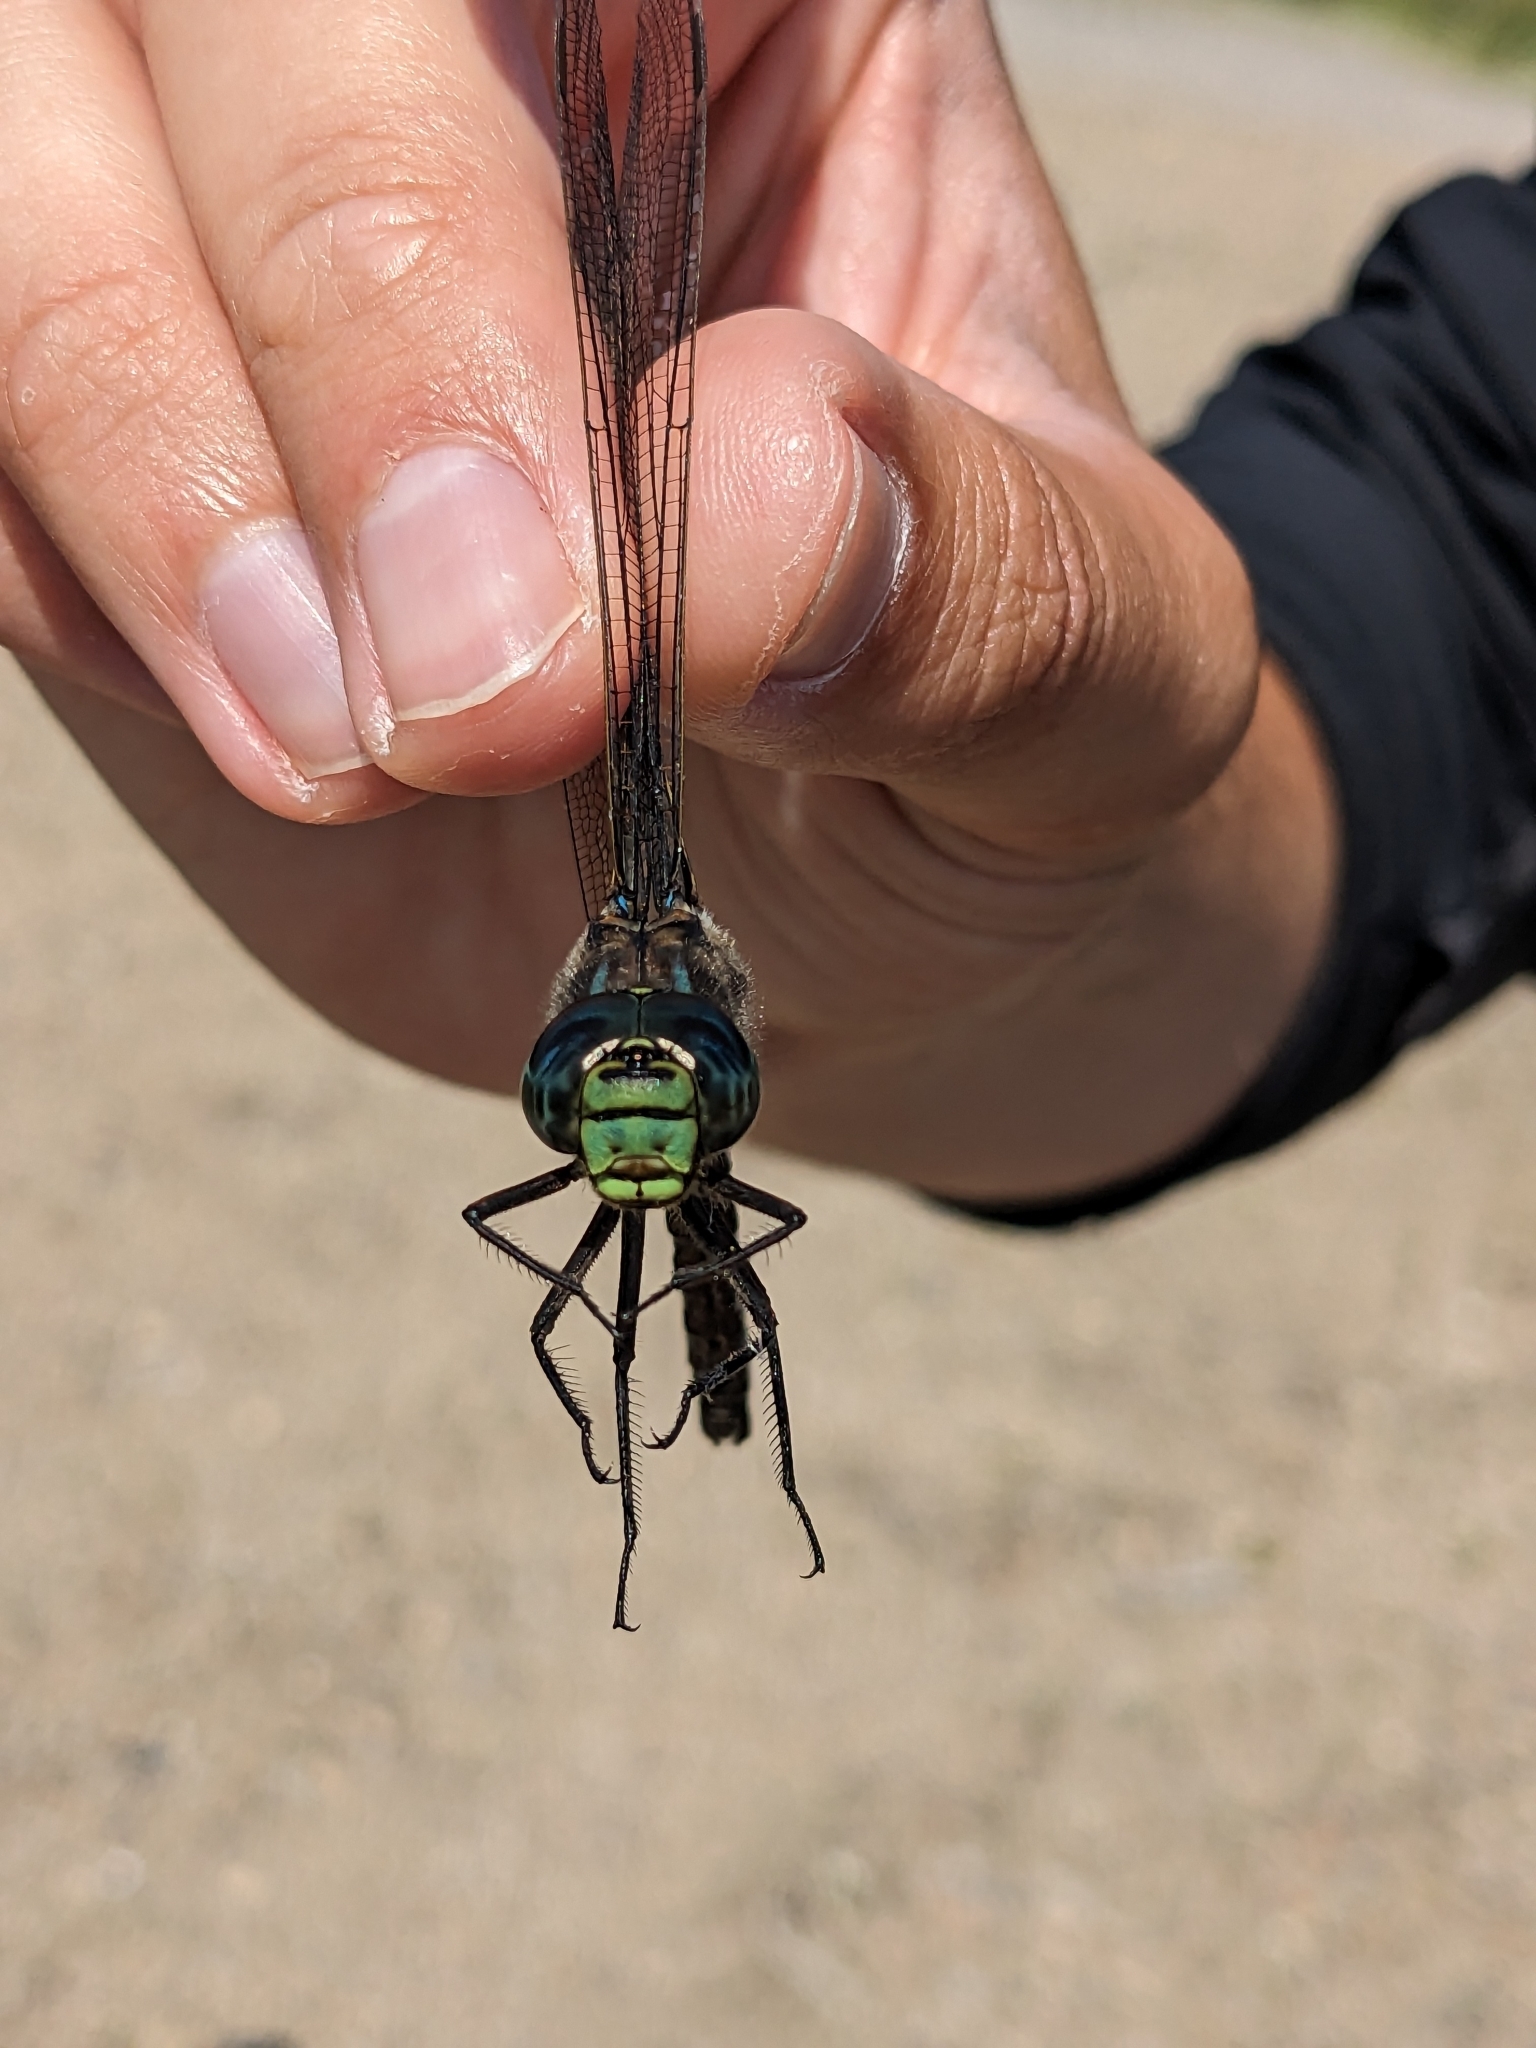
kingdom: Animalia
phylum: Arthropoda
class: Insecta
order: Odonata
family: Aeshnidae
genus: Aeshna
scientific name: Aeshna eremita
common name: Lake darner
